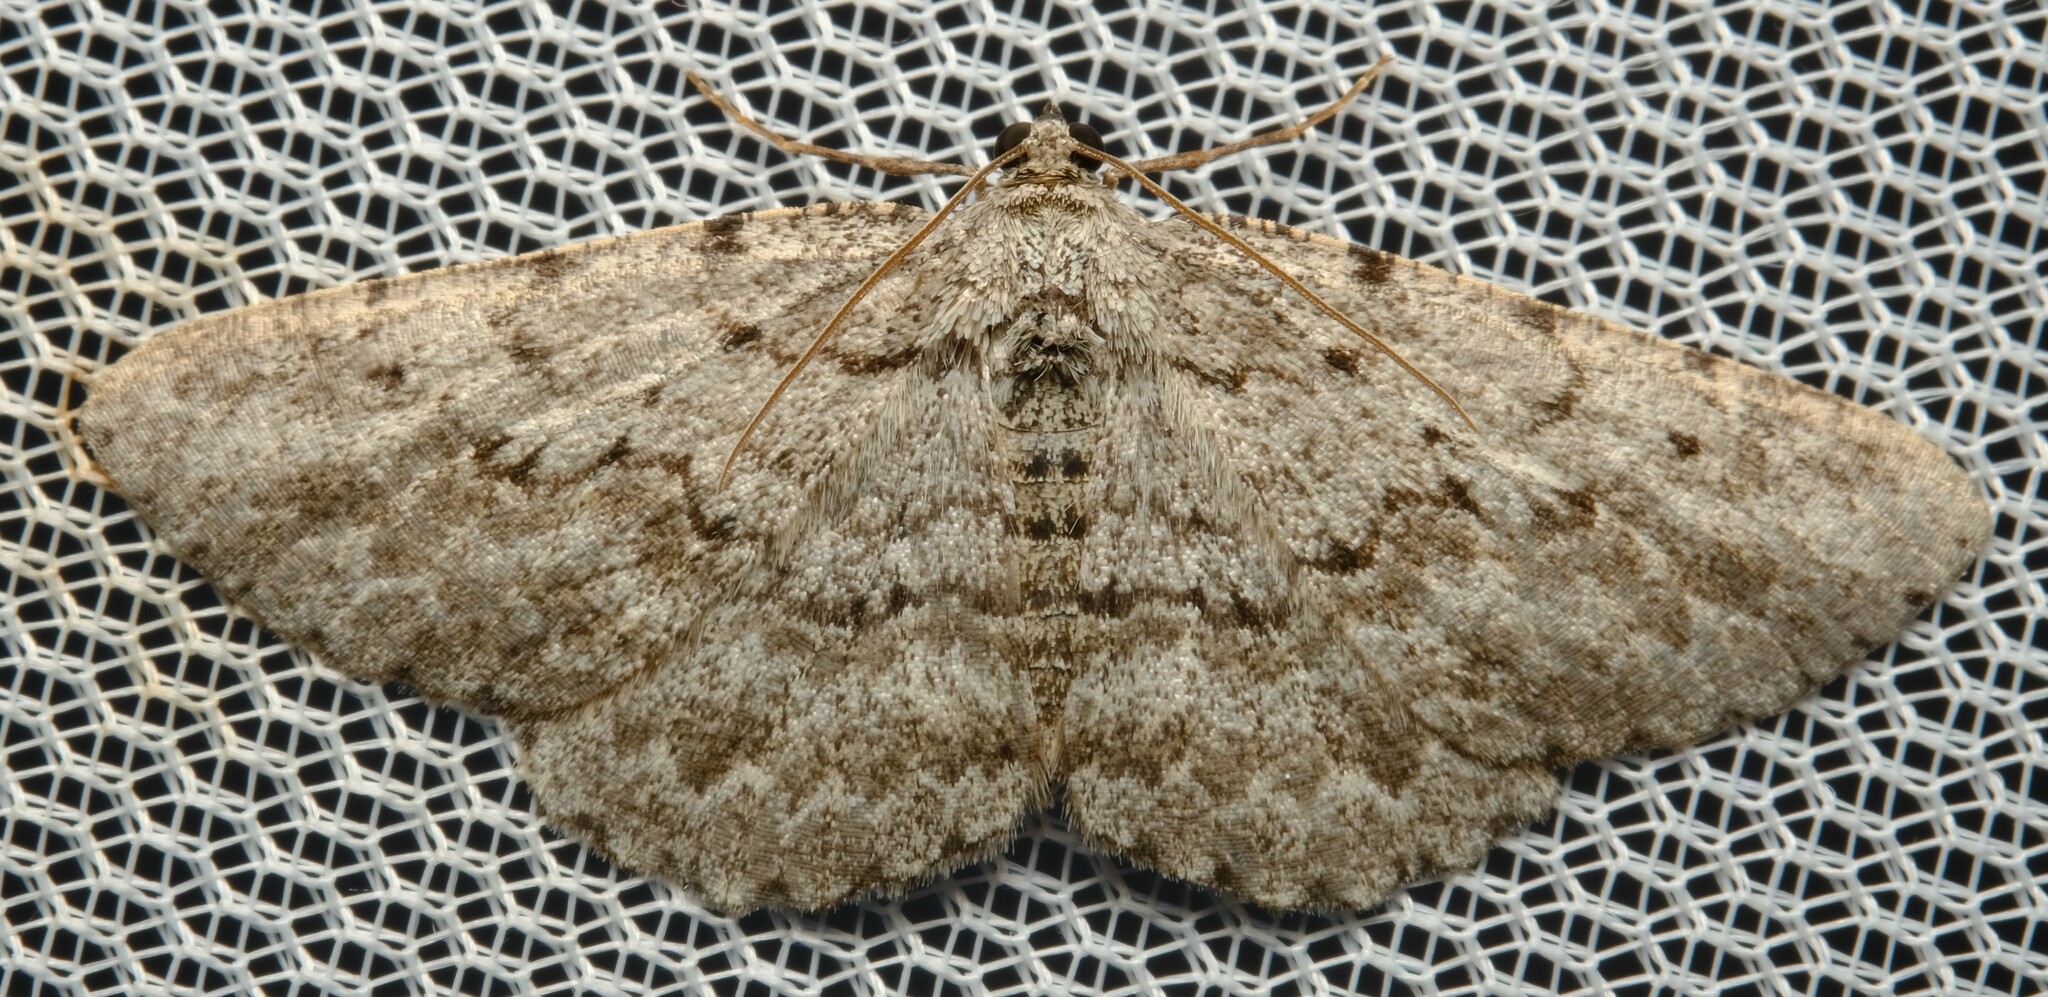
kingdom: Animalia
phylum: Arthropoda
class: Insecta
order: Lepidoptera
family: Geometridae
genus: Psilosticha
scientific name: Psilosticha absorpta
